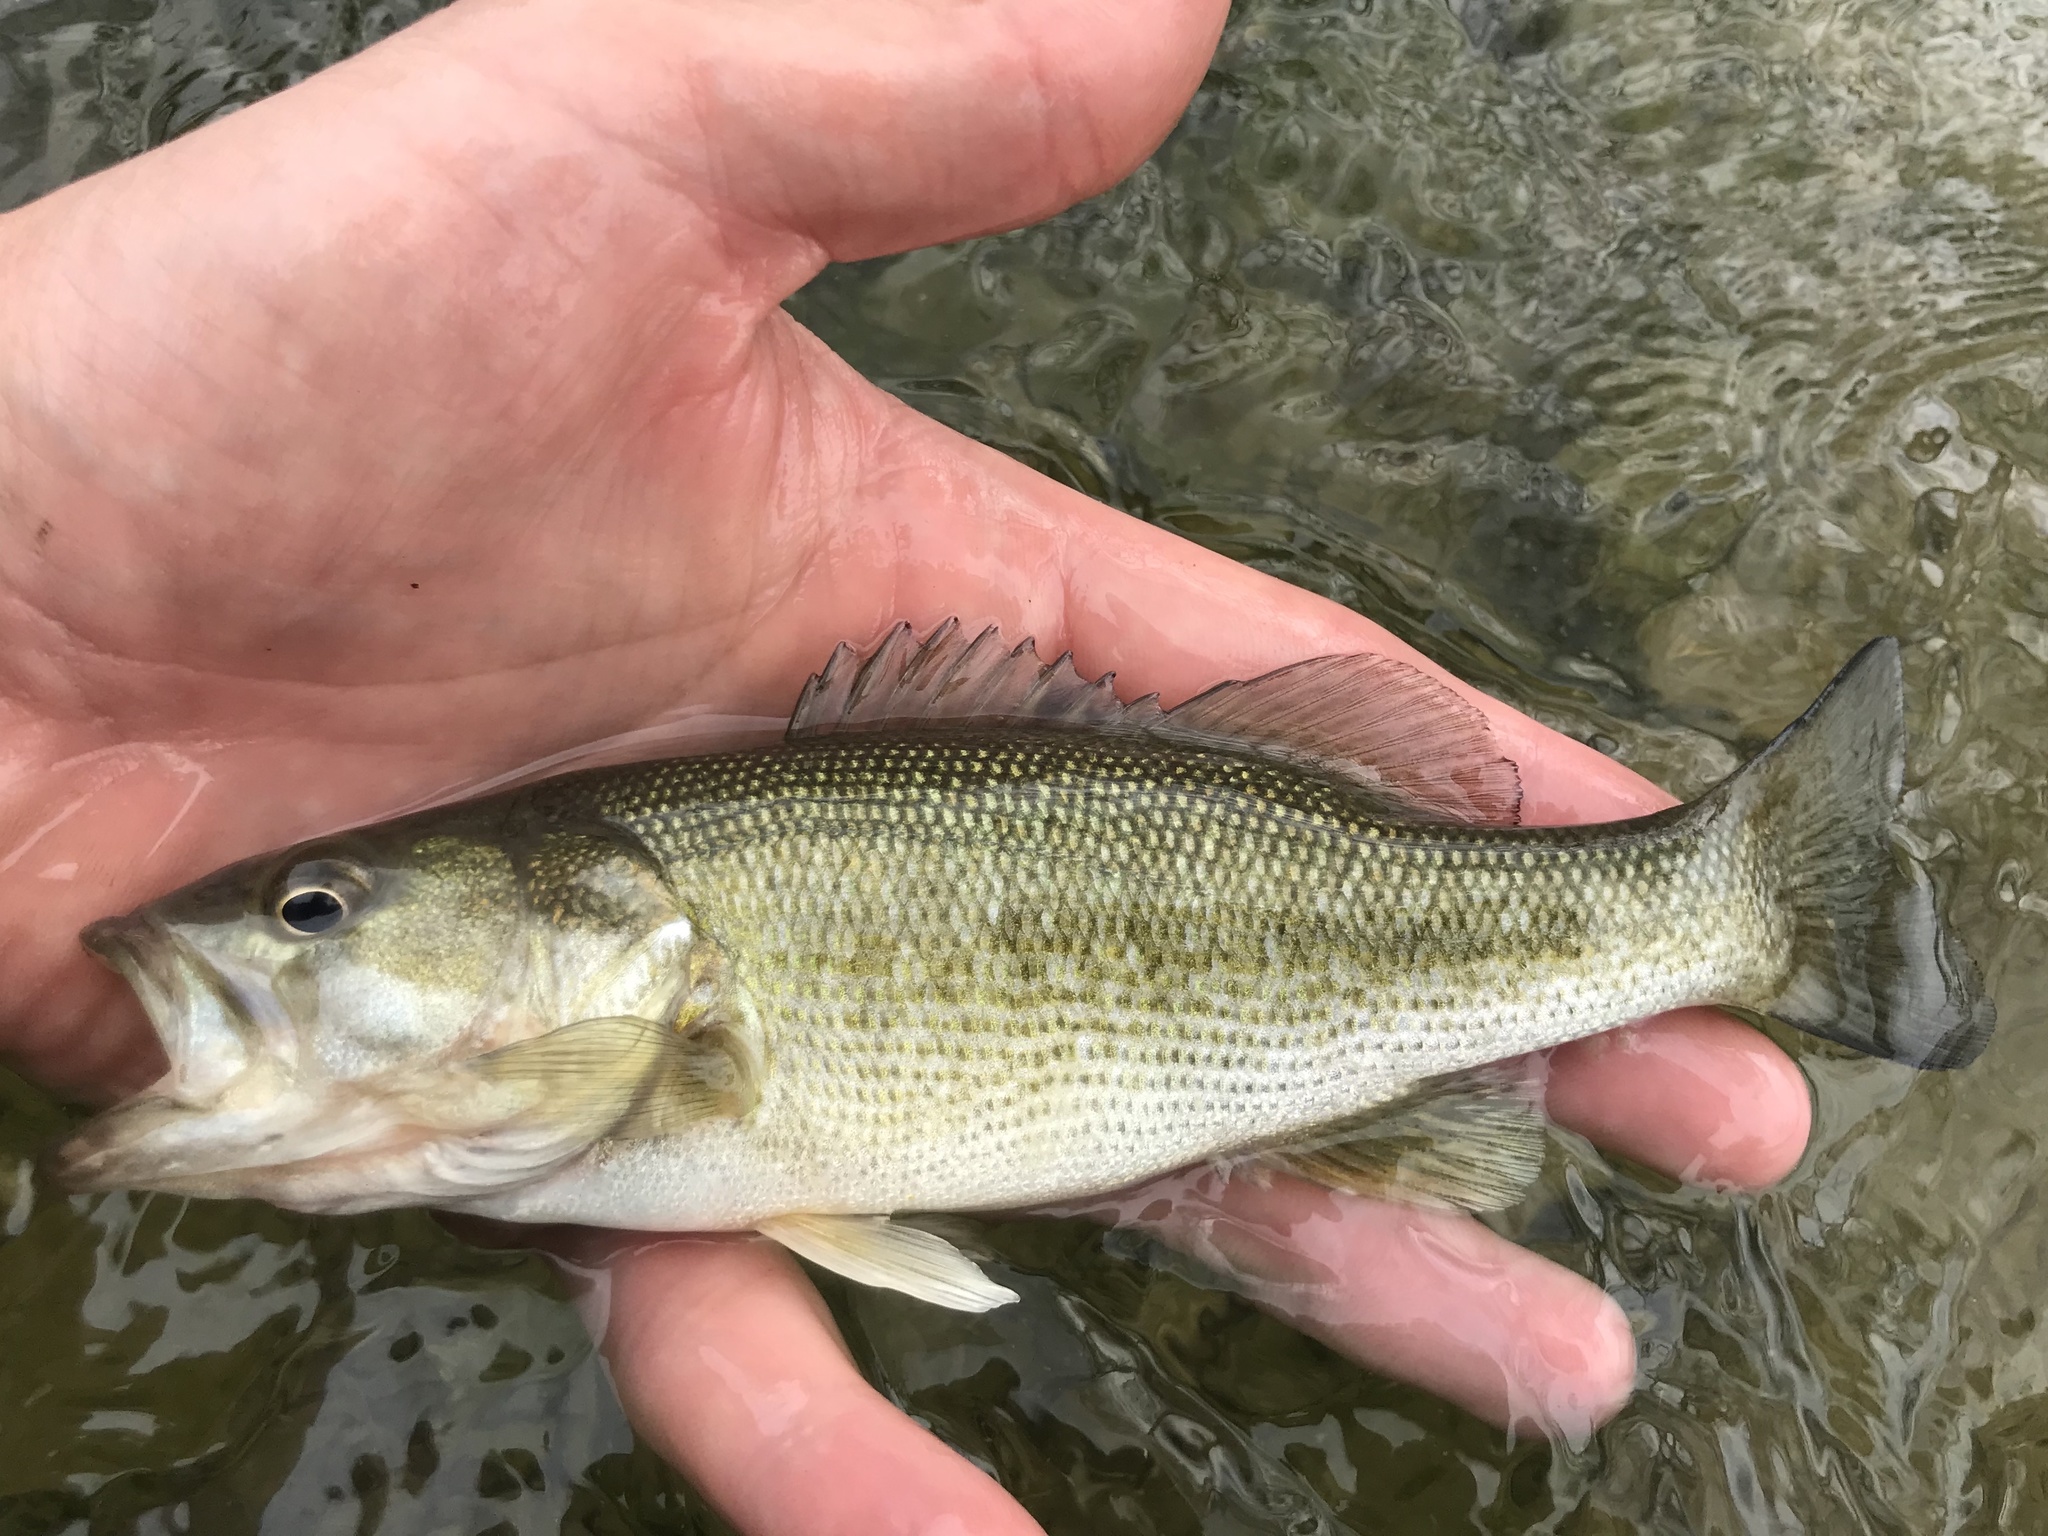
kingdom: Animalia
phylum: Chordata
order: Perciformes
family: Centrarchidae
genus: Micropterus
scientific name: Micropterus treculii
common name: Guadalupe bass
